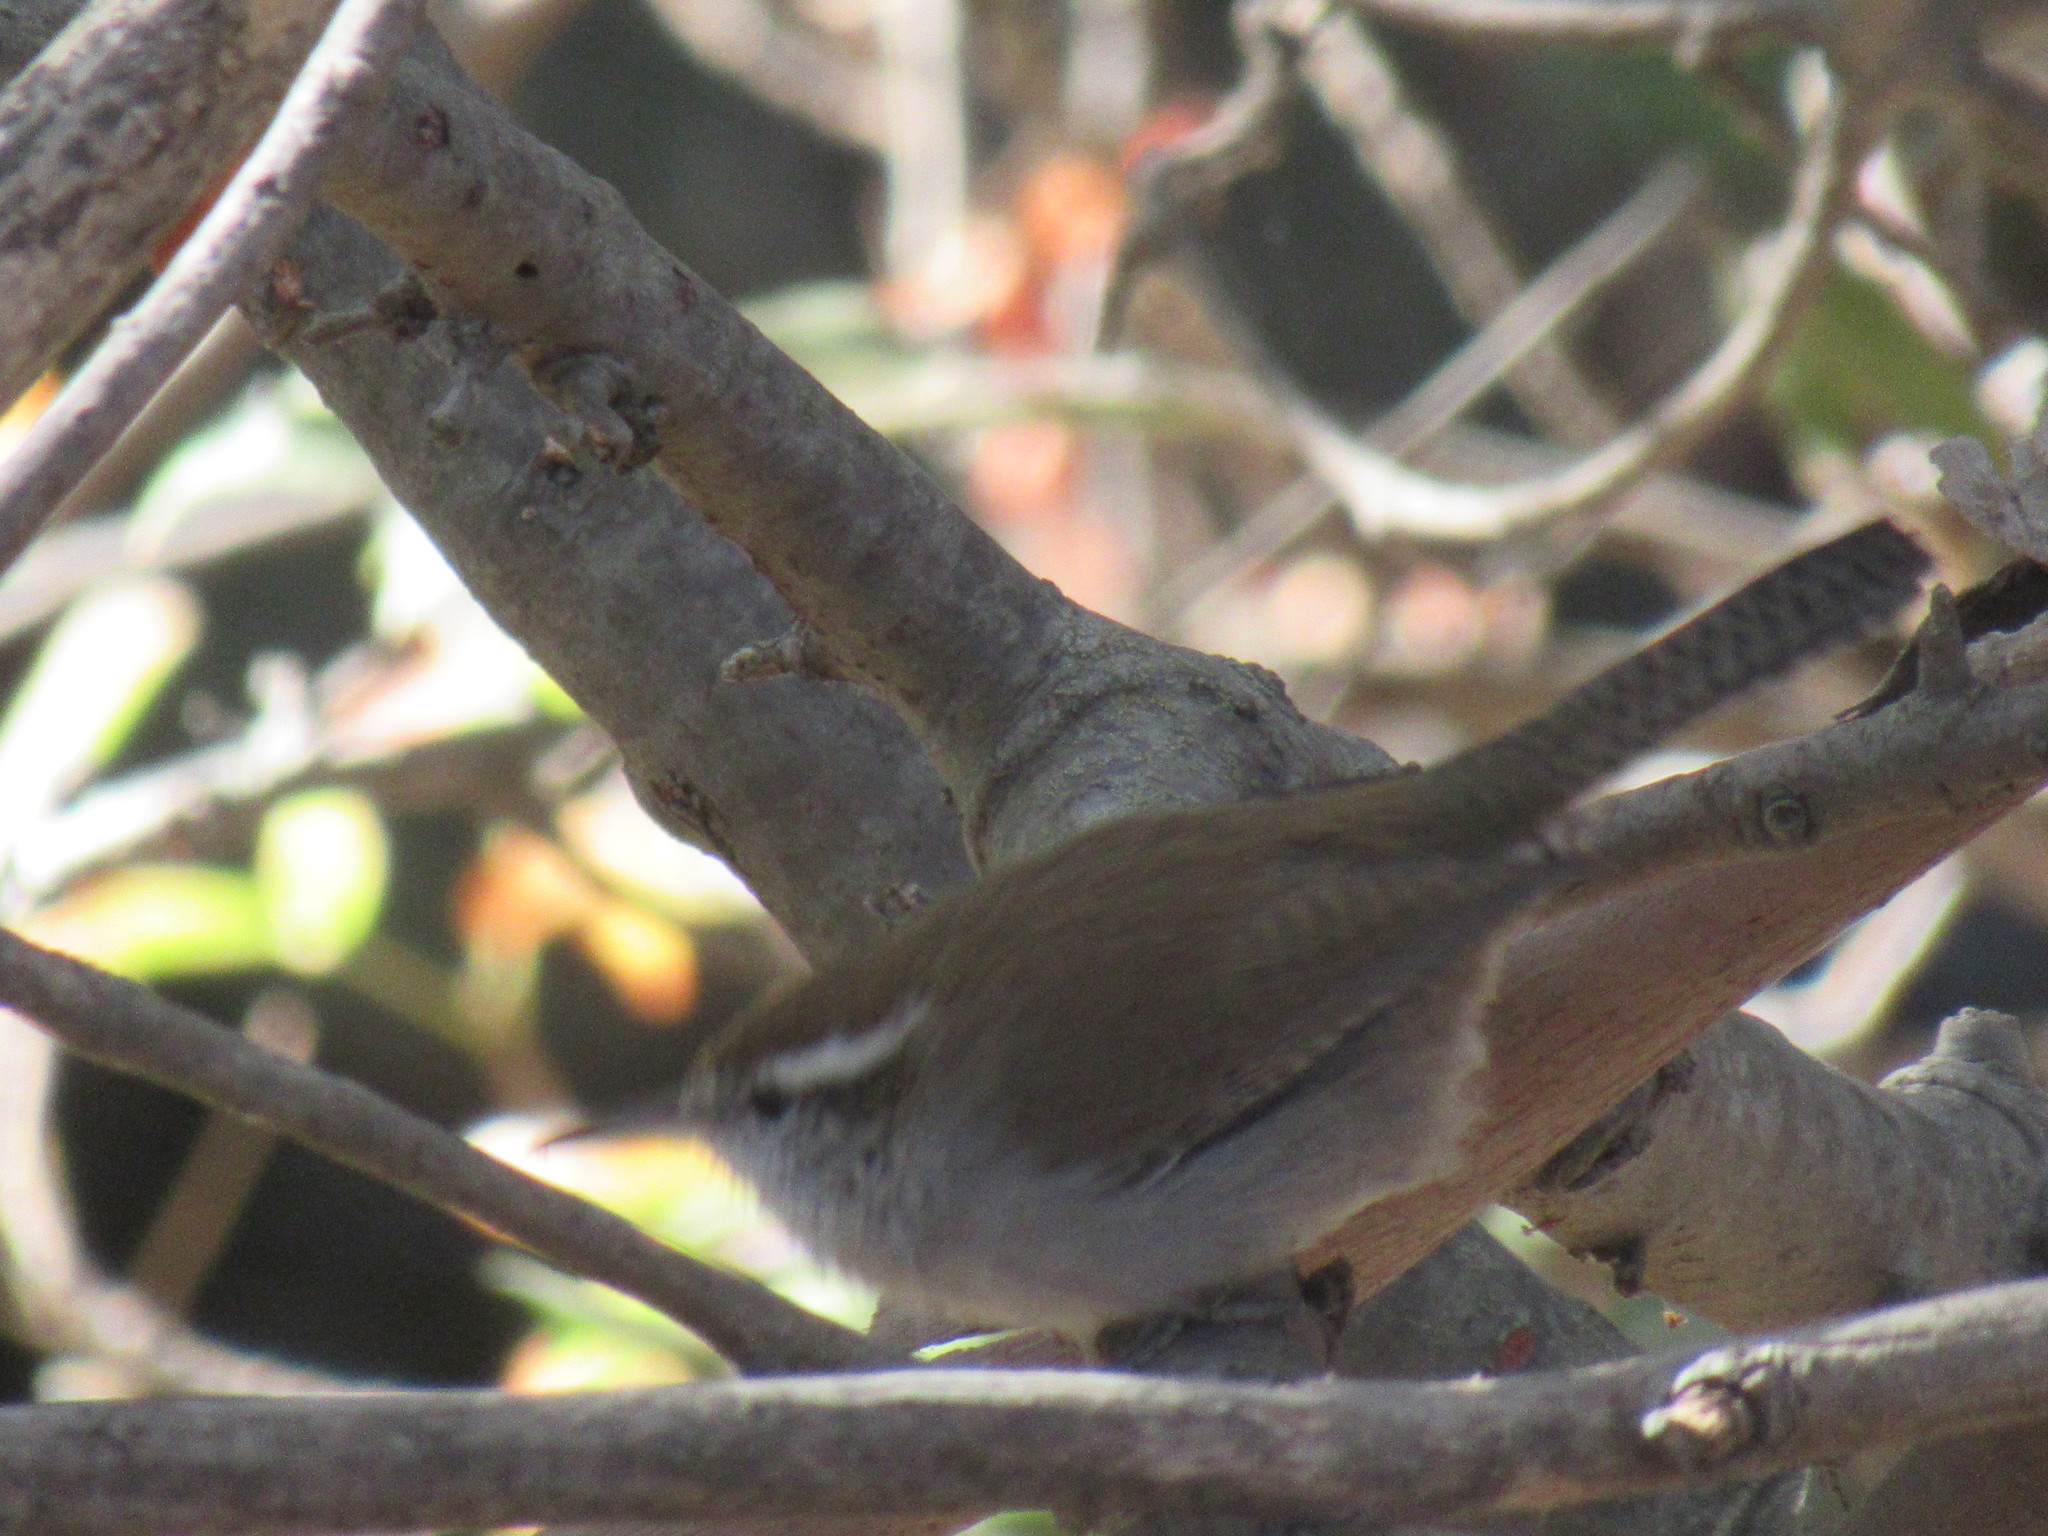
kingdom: Animalia
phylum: Chordata
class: Aves
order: Passeriformes
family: Troglodytidae
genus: Thryomanes
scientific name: Thryomanes bewickii
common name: Bewick's wren
